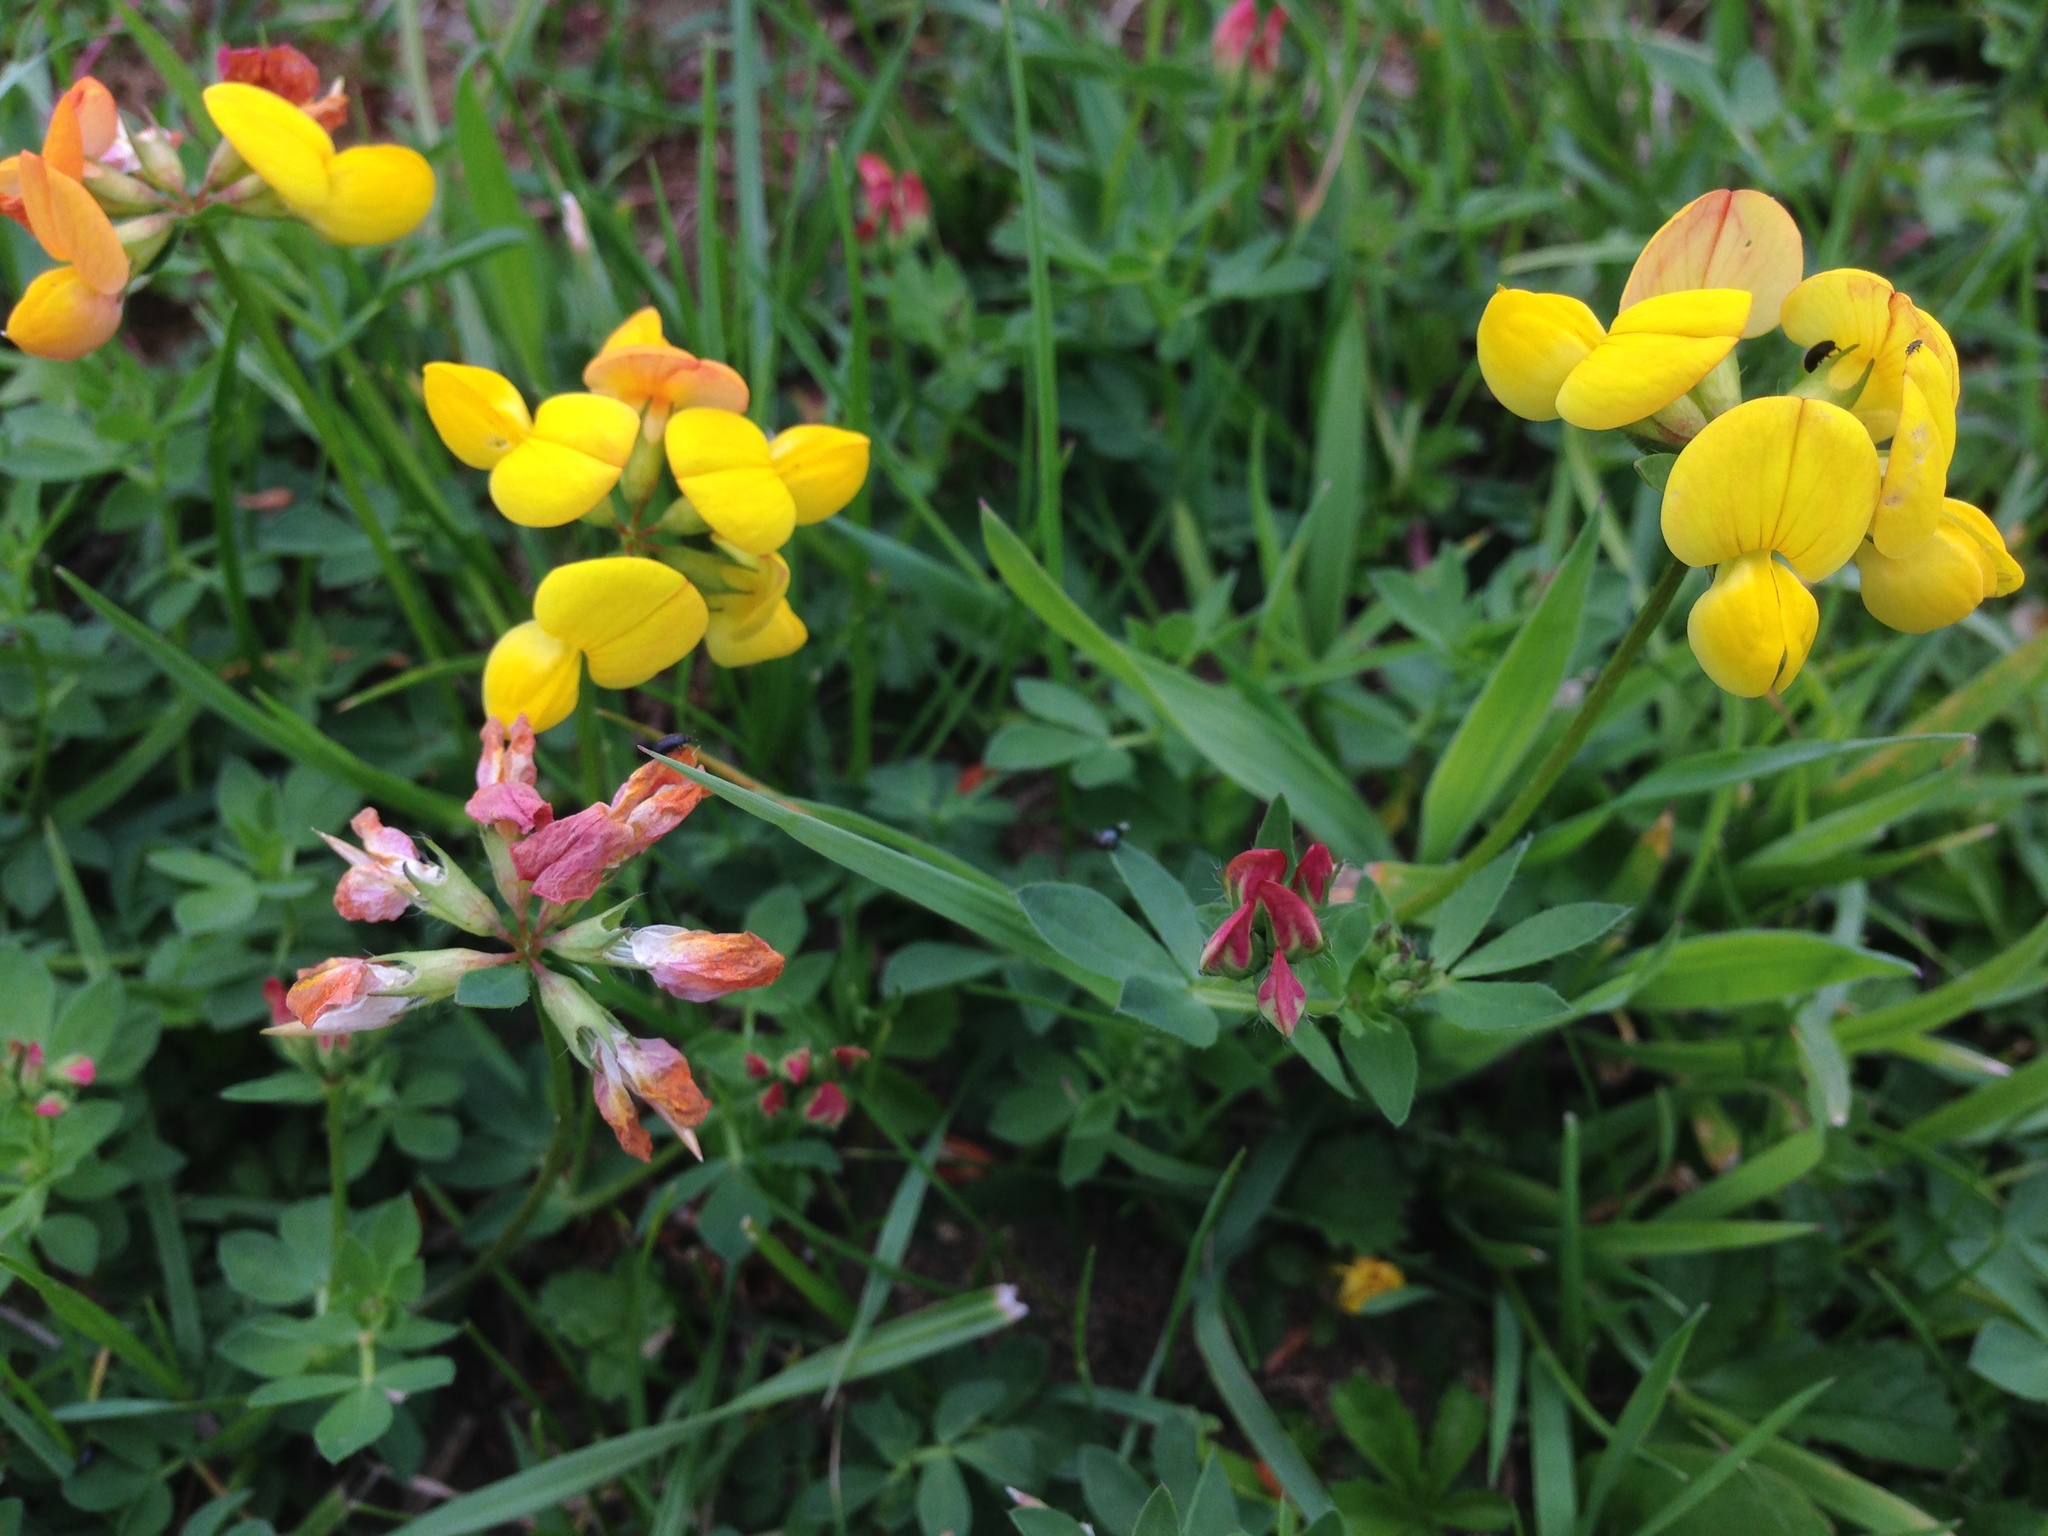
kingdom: Plantae
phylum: Tracheophyta
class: Magnoliopsida
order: Fabales
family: Fabaceae
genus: Lotus
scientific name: Lotus corniculatus
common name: Common bird's-foot-trefoil
